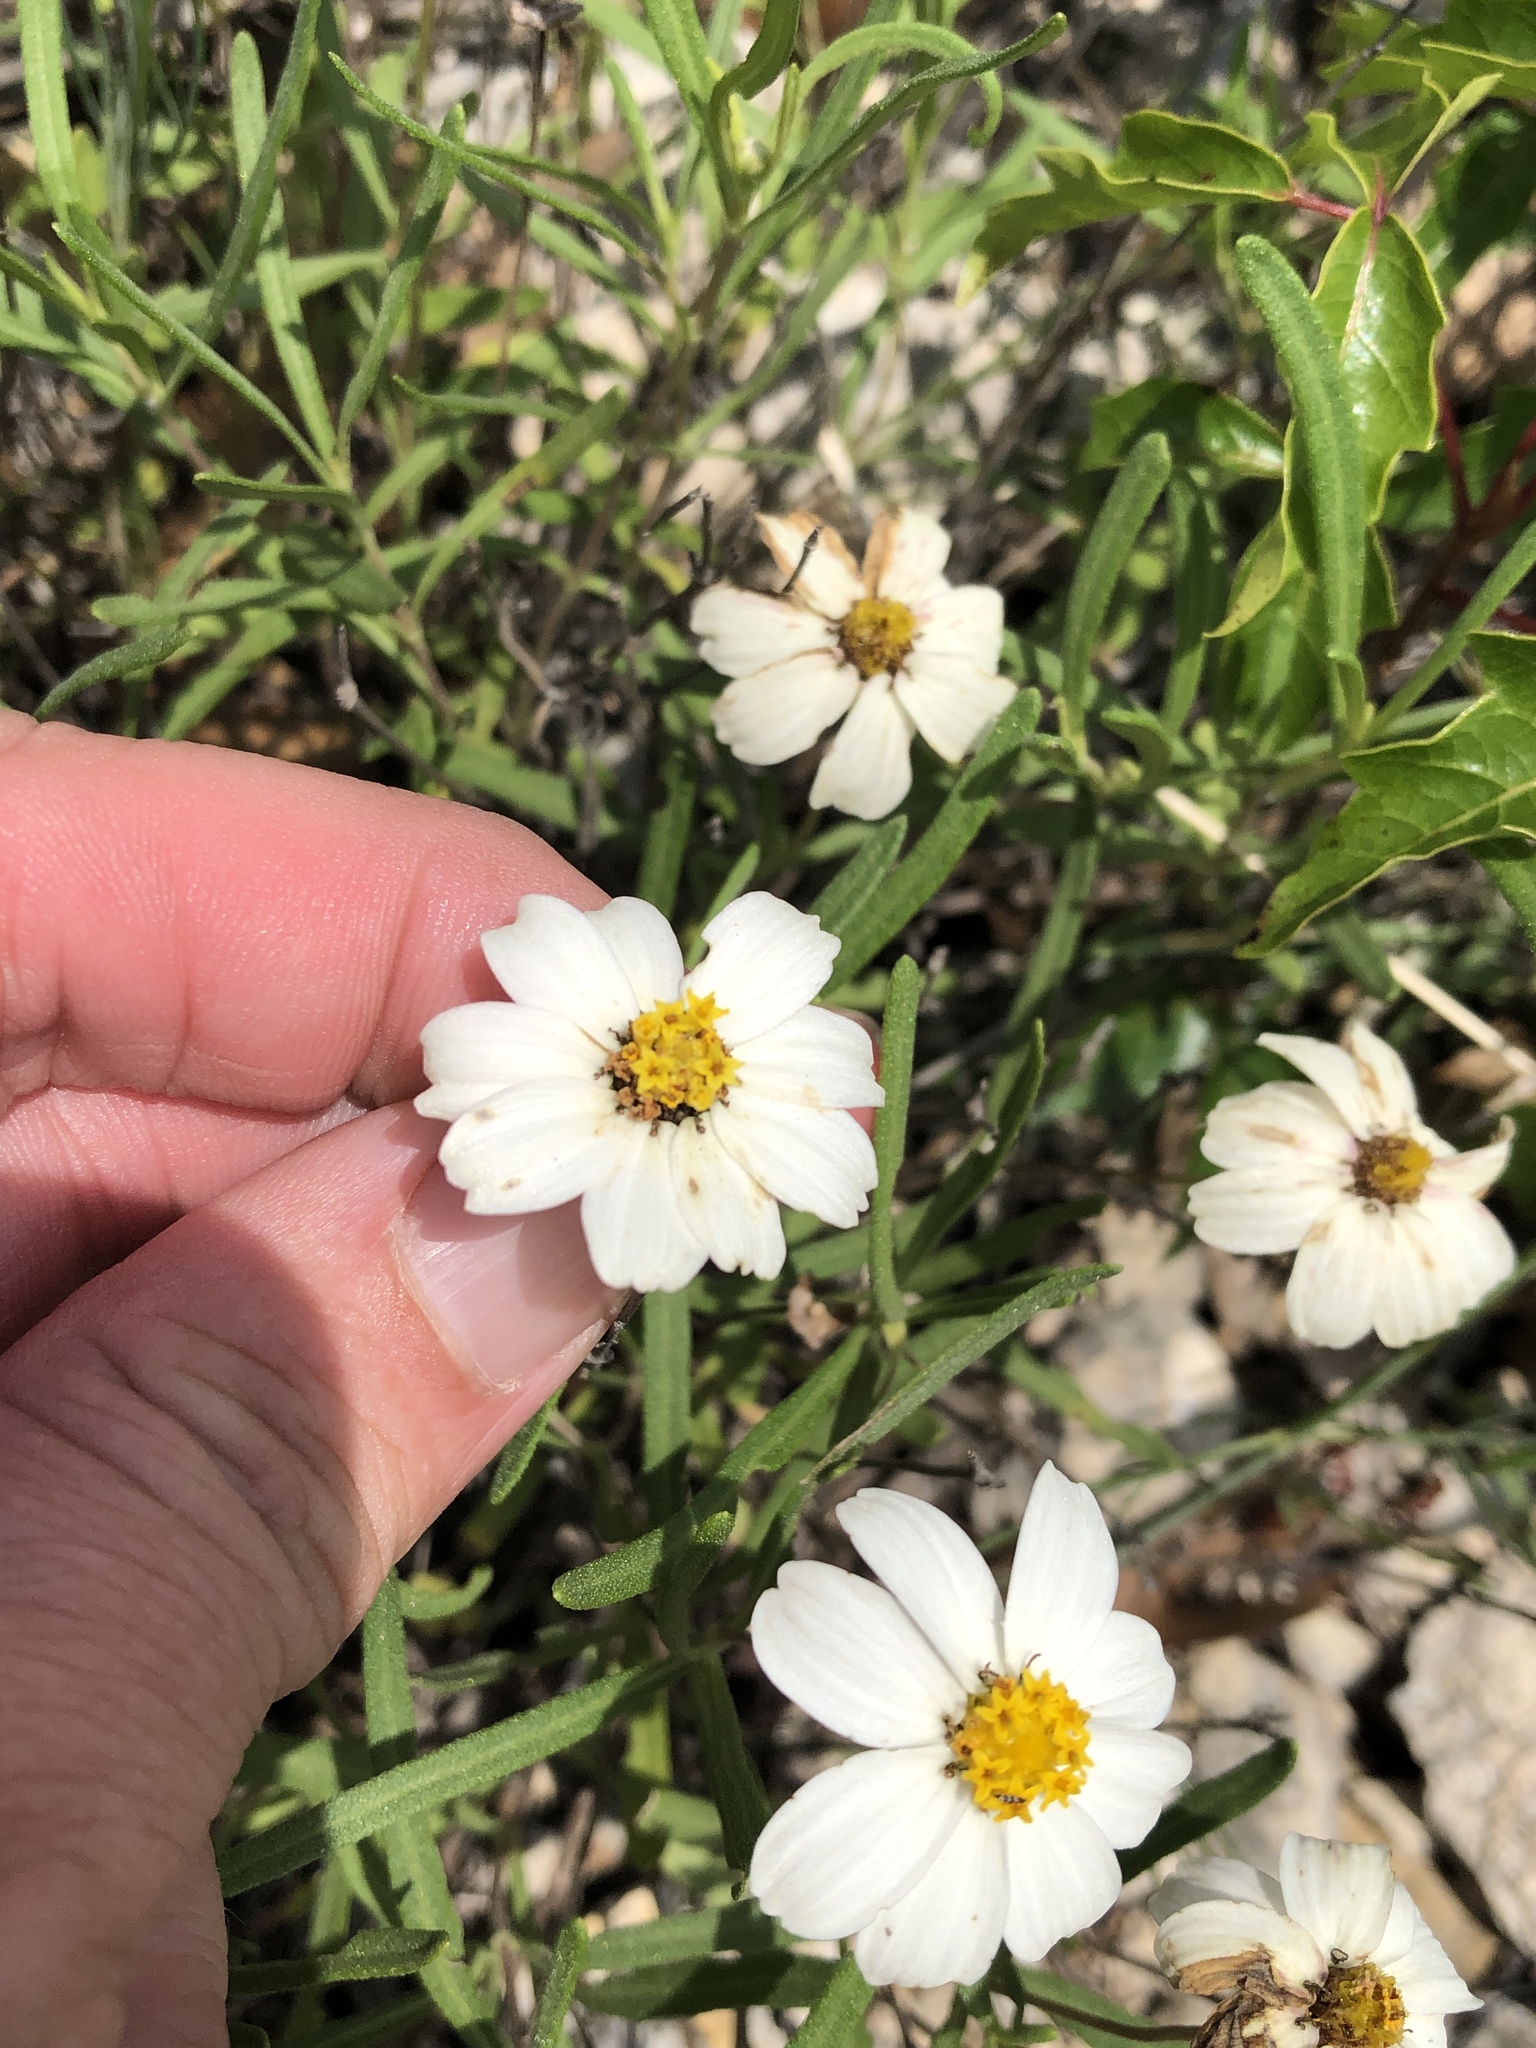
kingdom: Plantae
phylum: Tracheophyta
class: Magnoliopsida
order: Asterales
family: Asteraceae
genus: Melampodium
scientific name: Melampodium leucanthum
